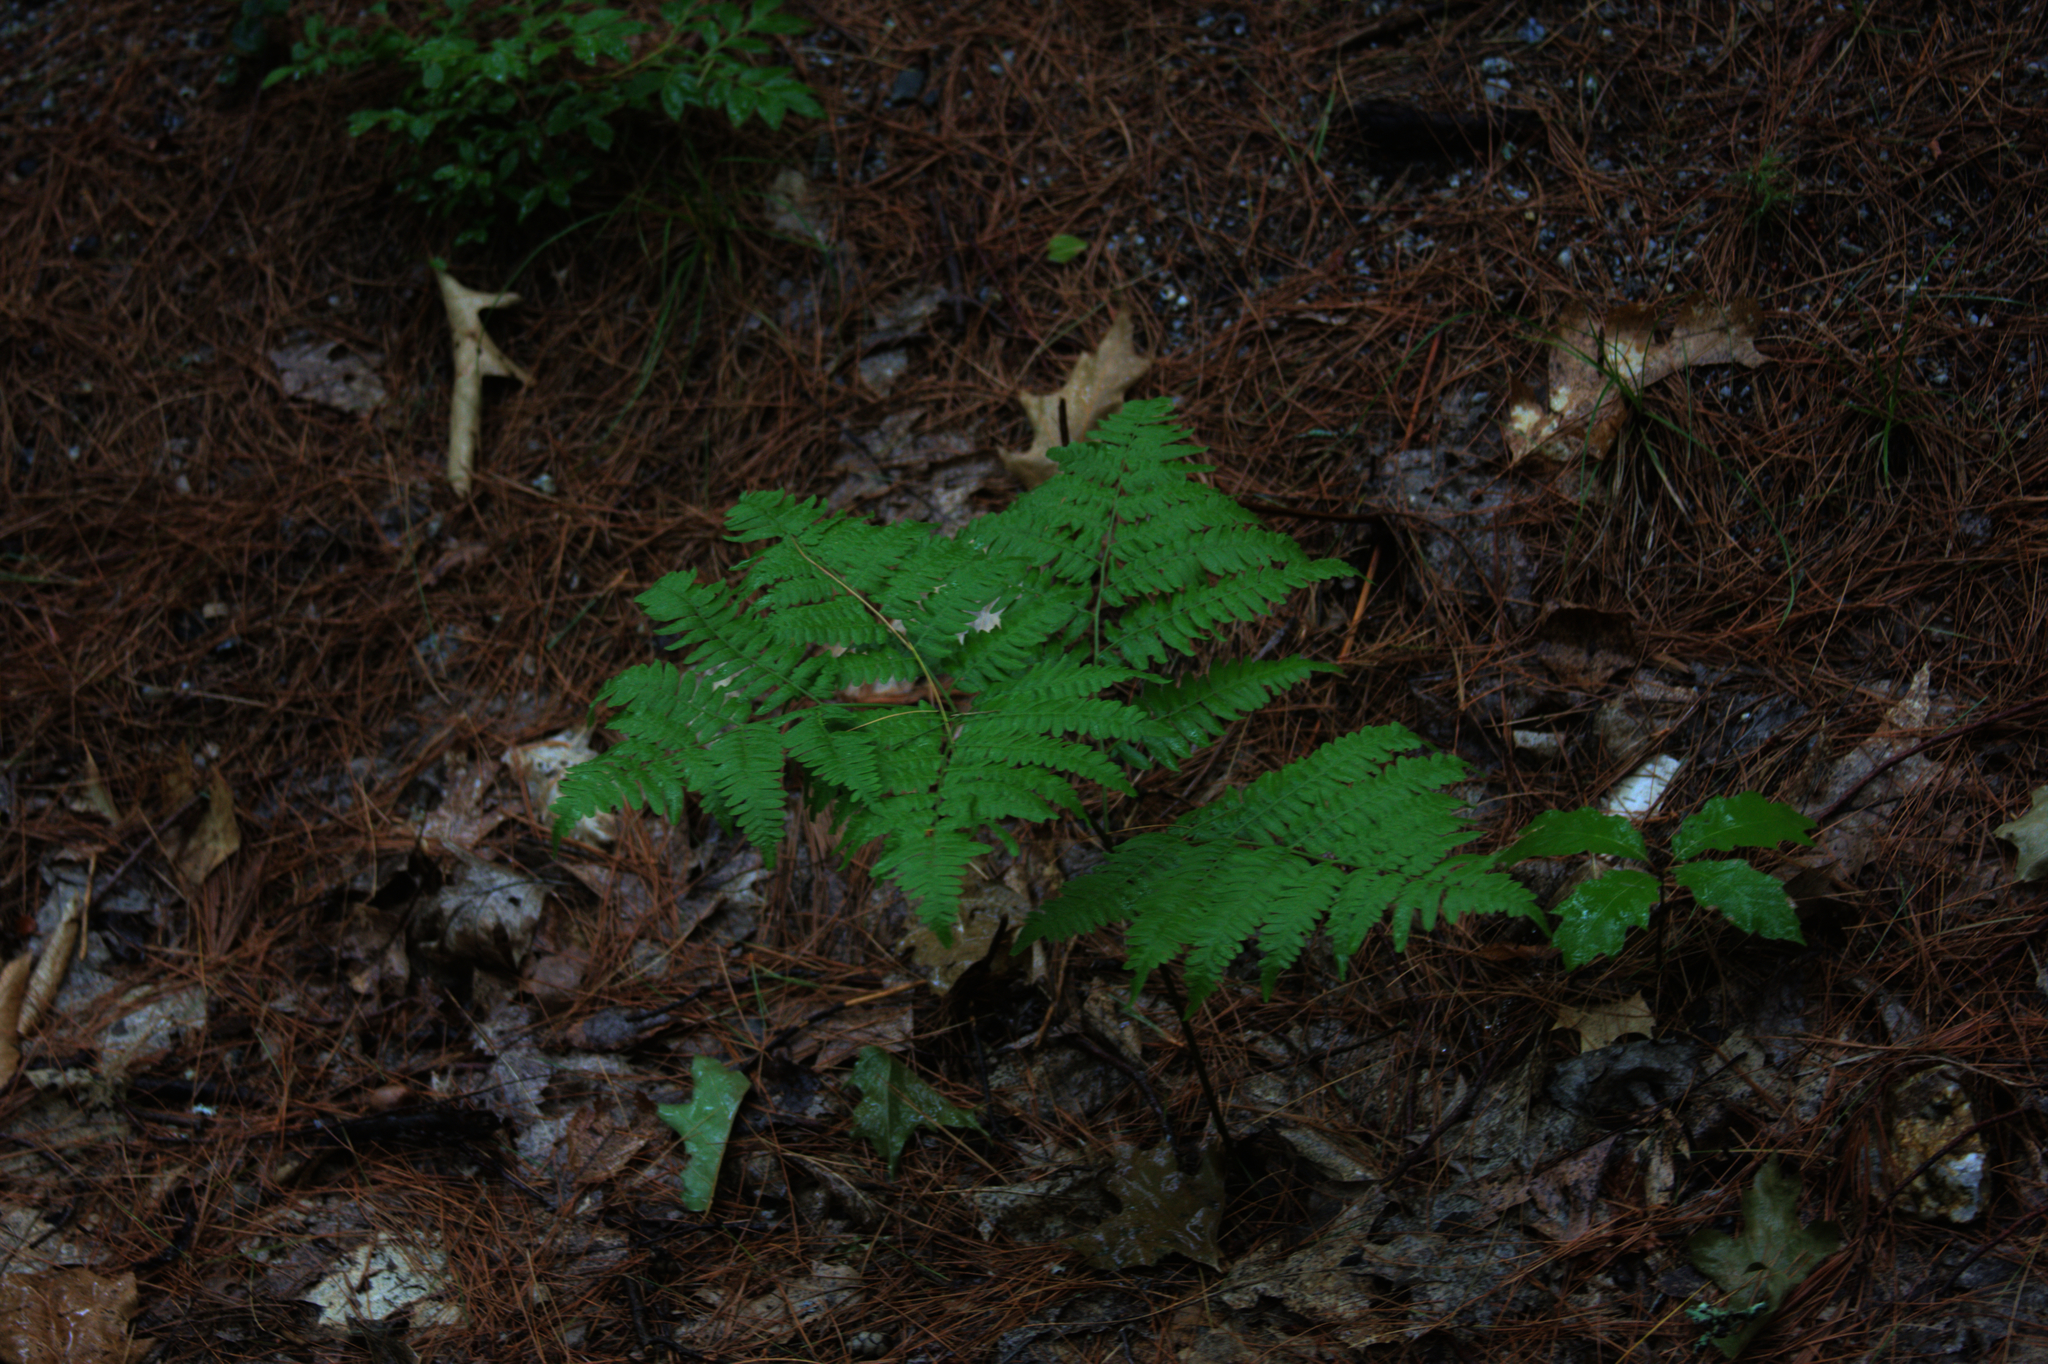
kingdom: Plantae
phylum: Tracheophyta
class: Polypodiopsida
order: Polypodiales
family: Dennstaedtiaceae
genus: Pteridium
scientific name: Pteridium aquilinum
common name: Bracken
